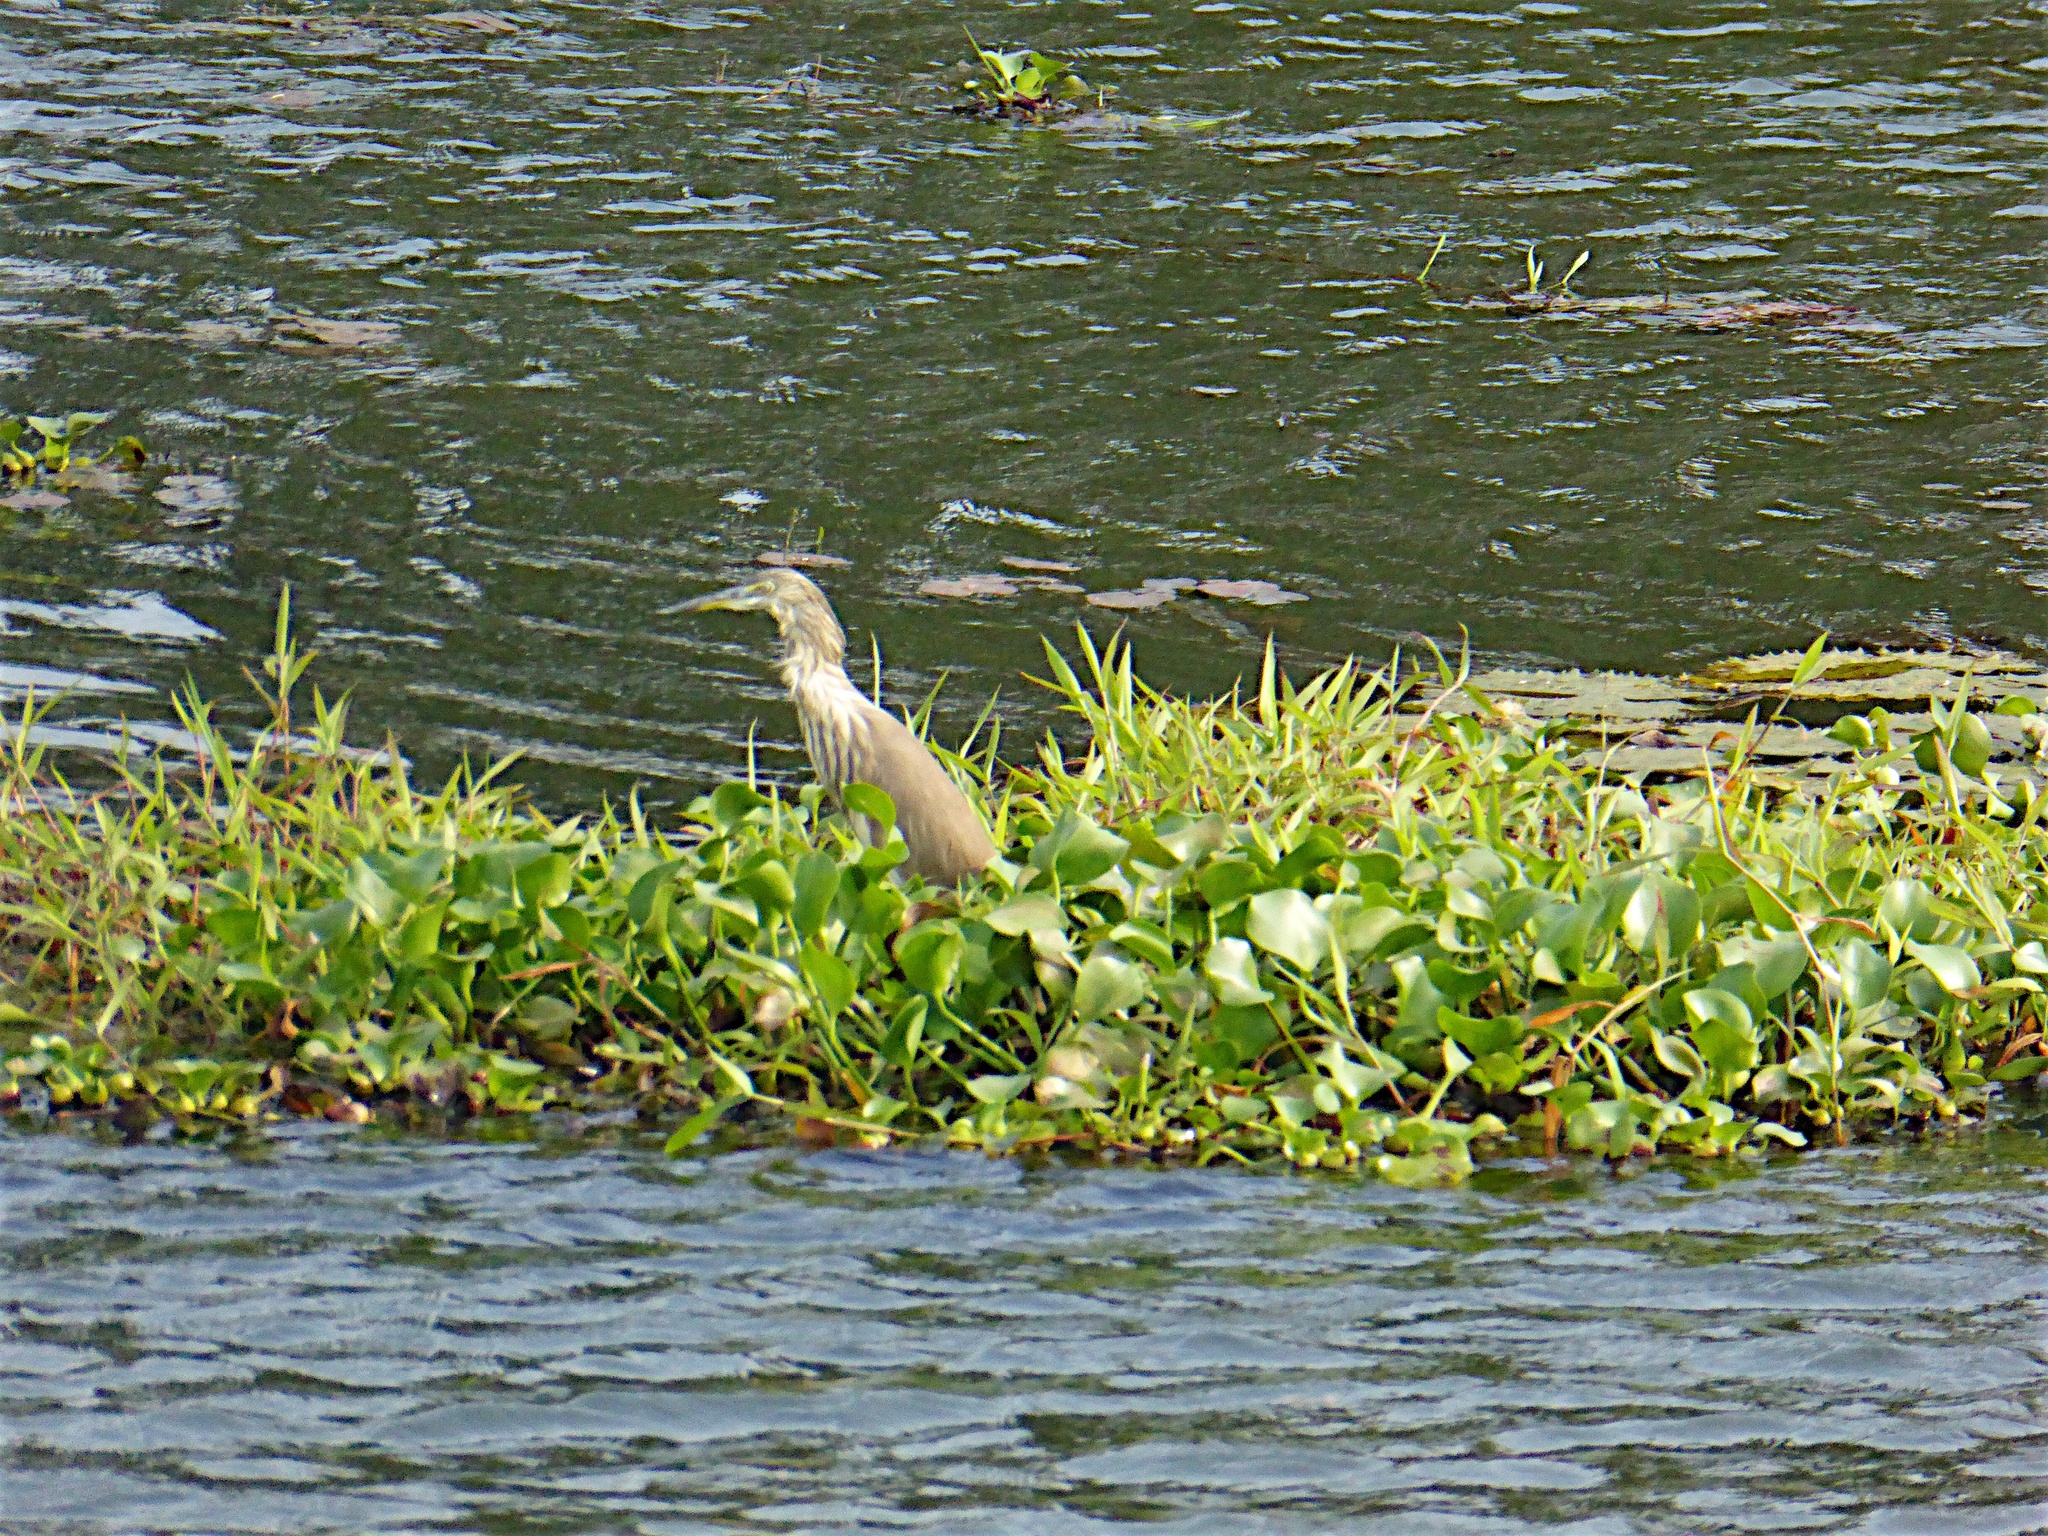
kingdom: Animalia
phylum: Chordata
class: Aves
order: Pelecaniformes
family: Ardeidae
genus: Ardeola
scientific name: Ardeola grayii
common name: Indian pond heron
